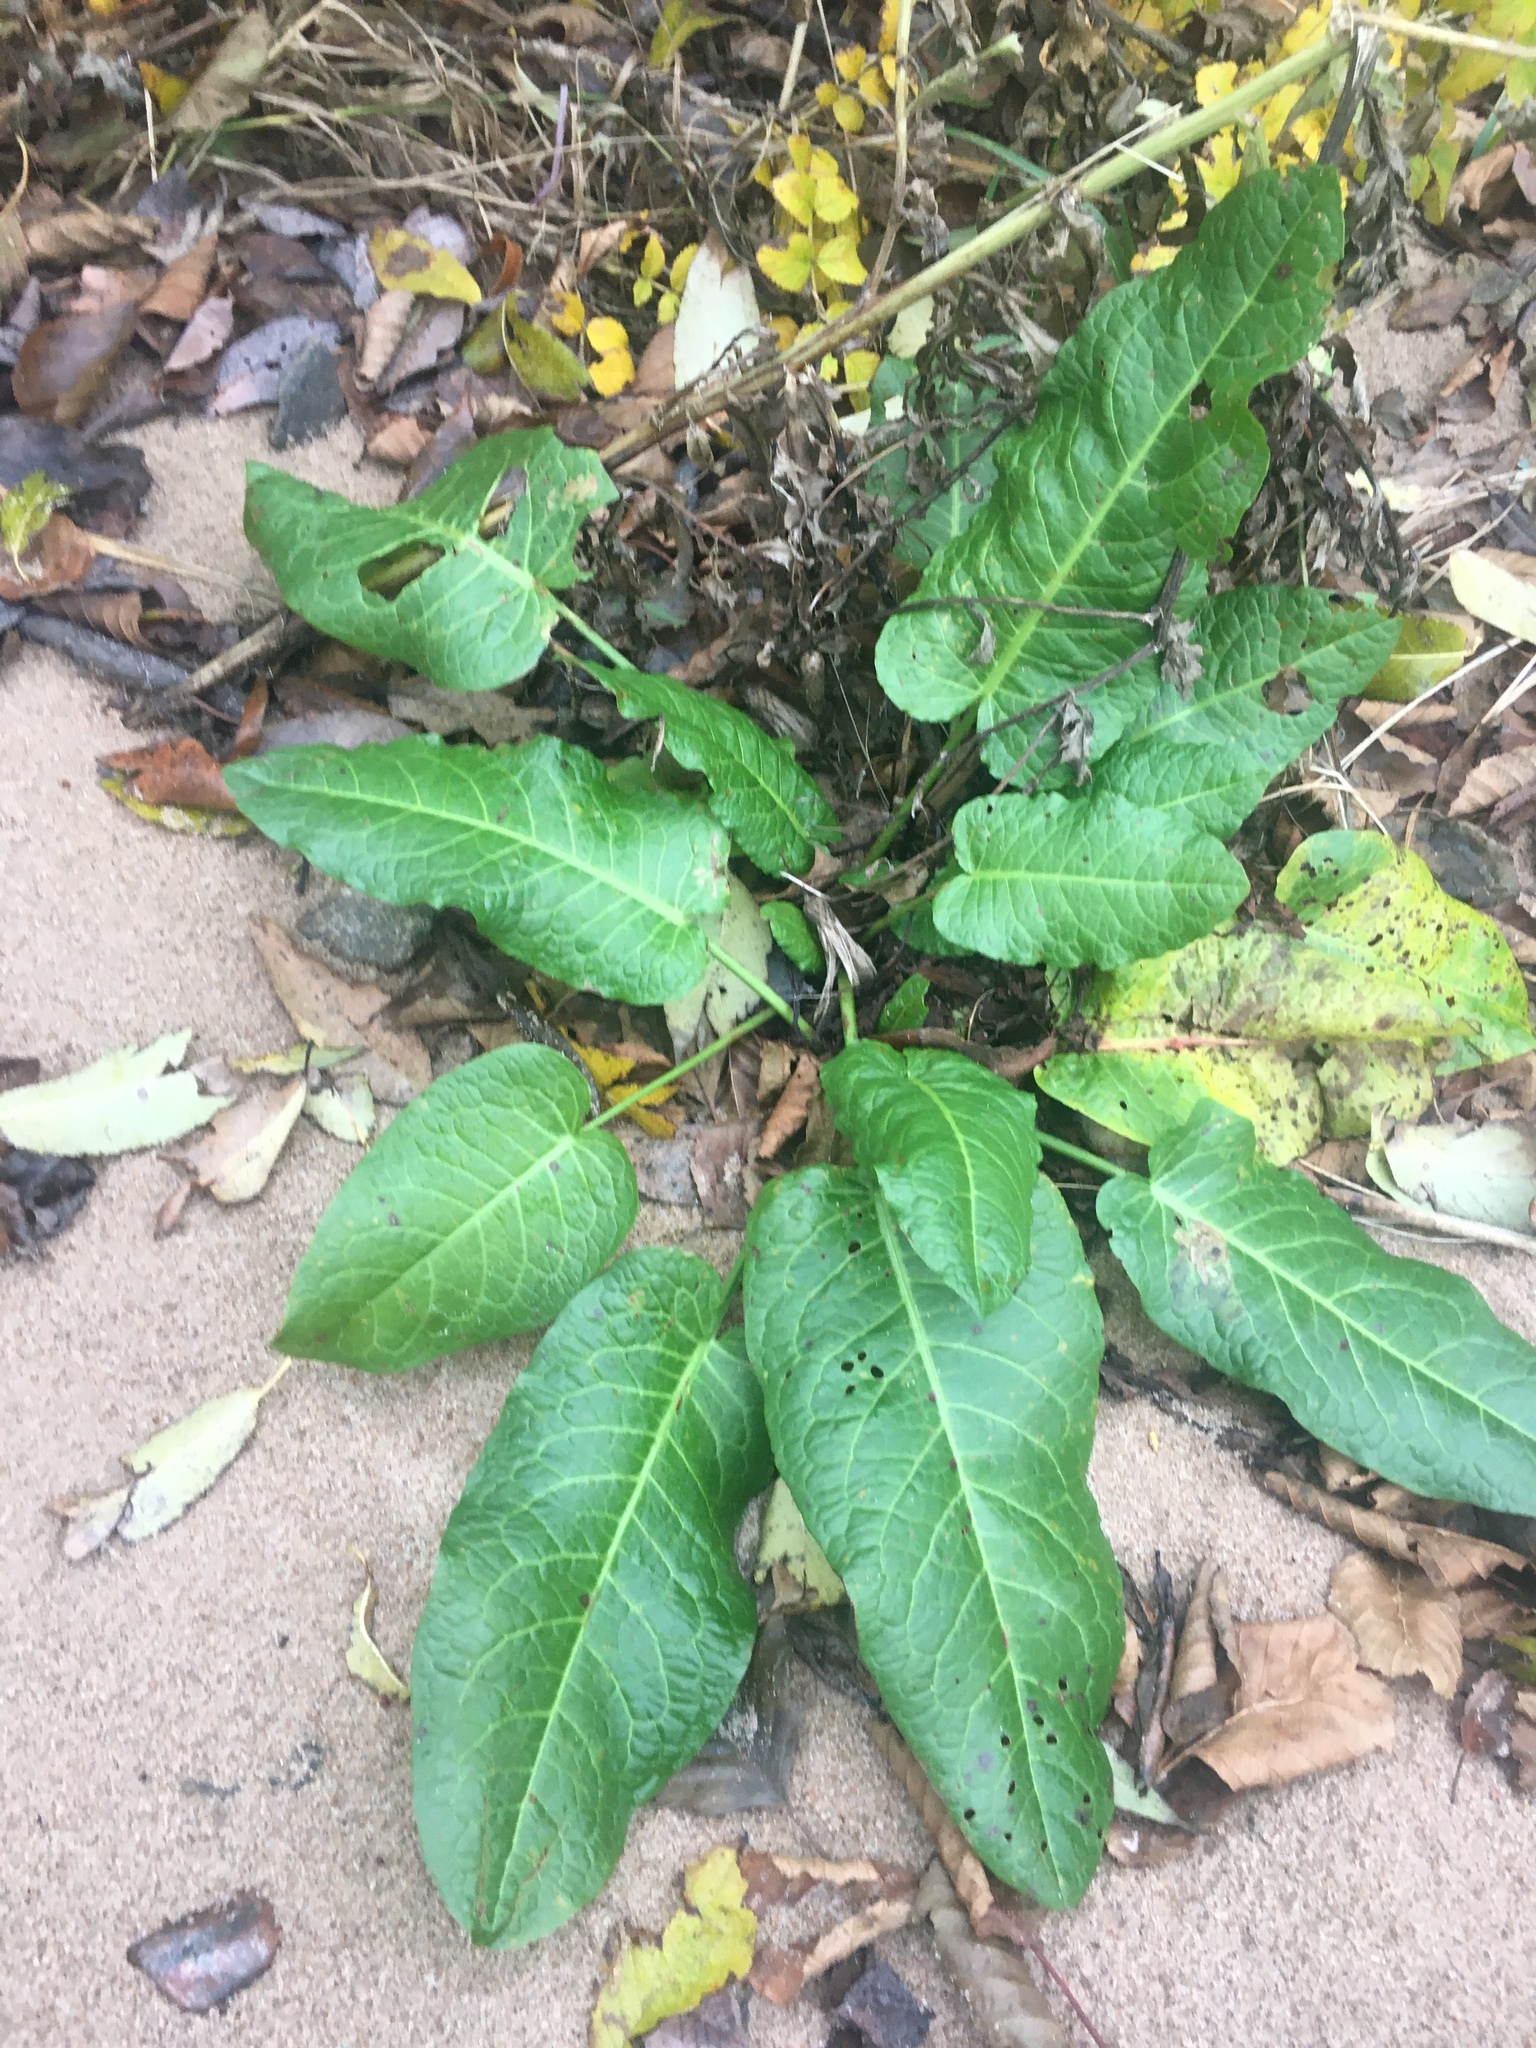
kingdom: Plantae
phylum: Tracheophyta
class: Magnoliopsida
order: Caryophyllales
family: Polygonaceae
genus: Rumex
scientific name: Rumex obtusifolius
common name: Bitter dock
